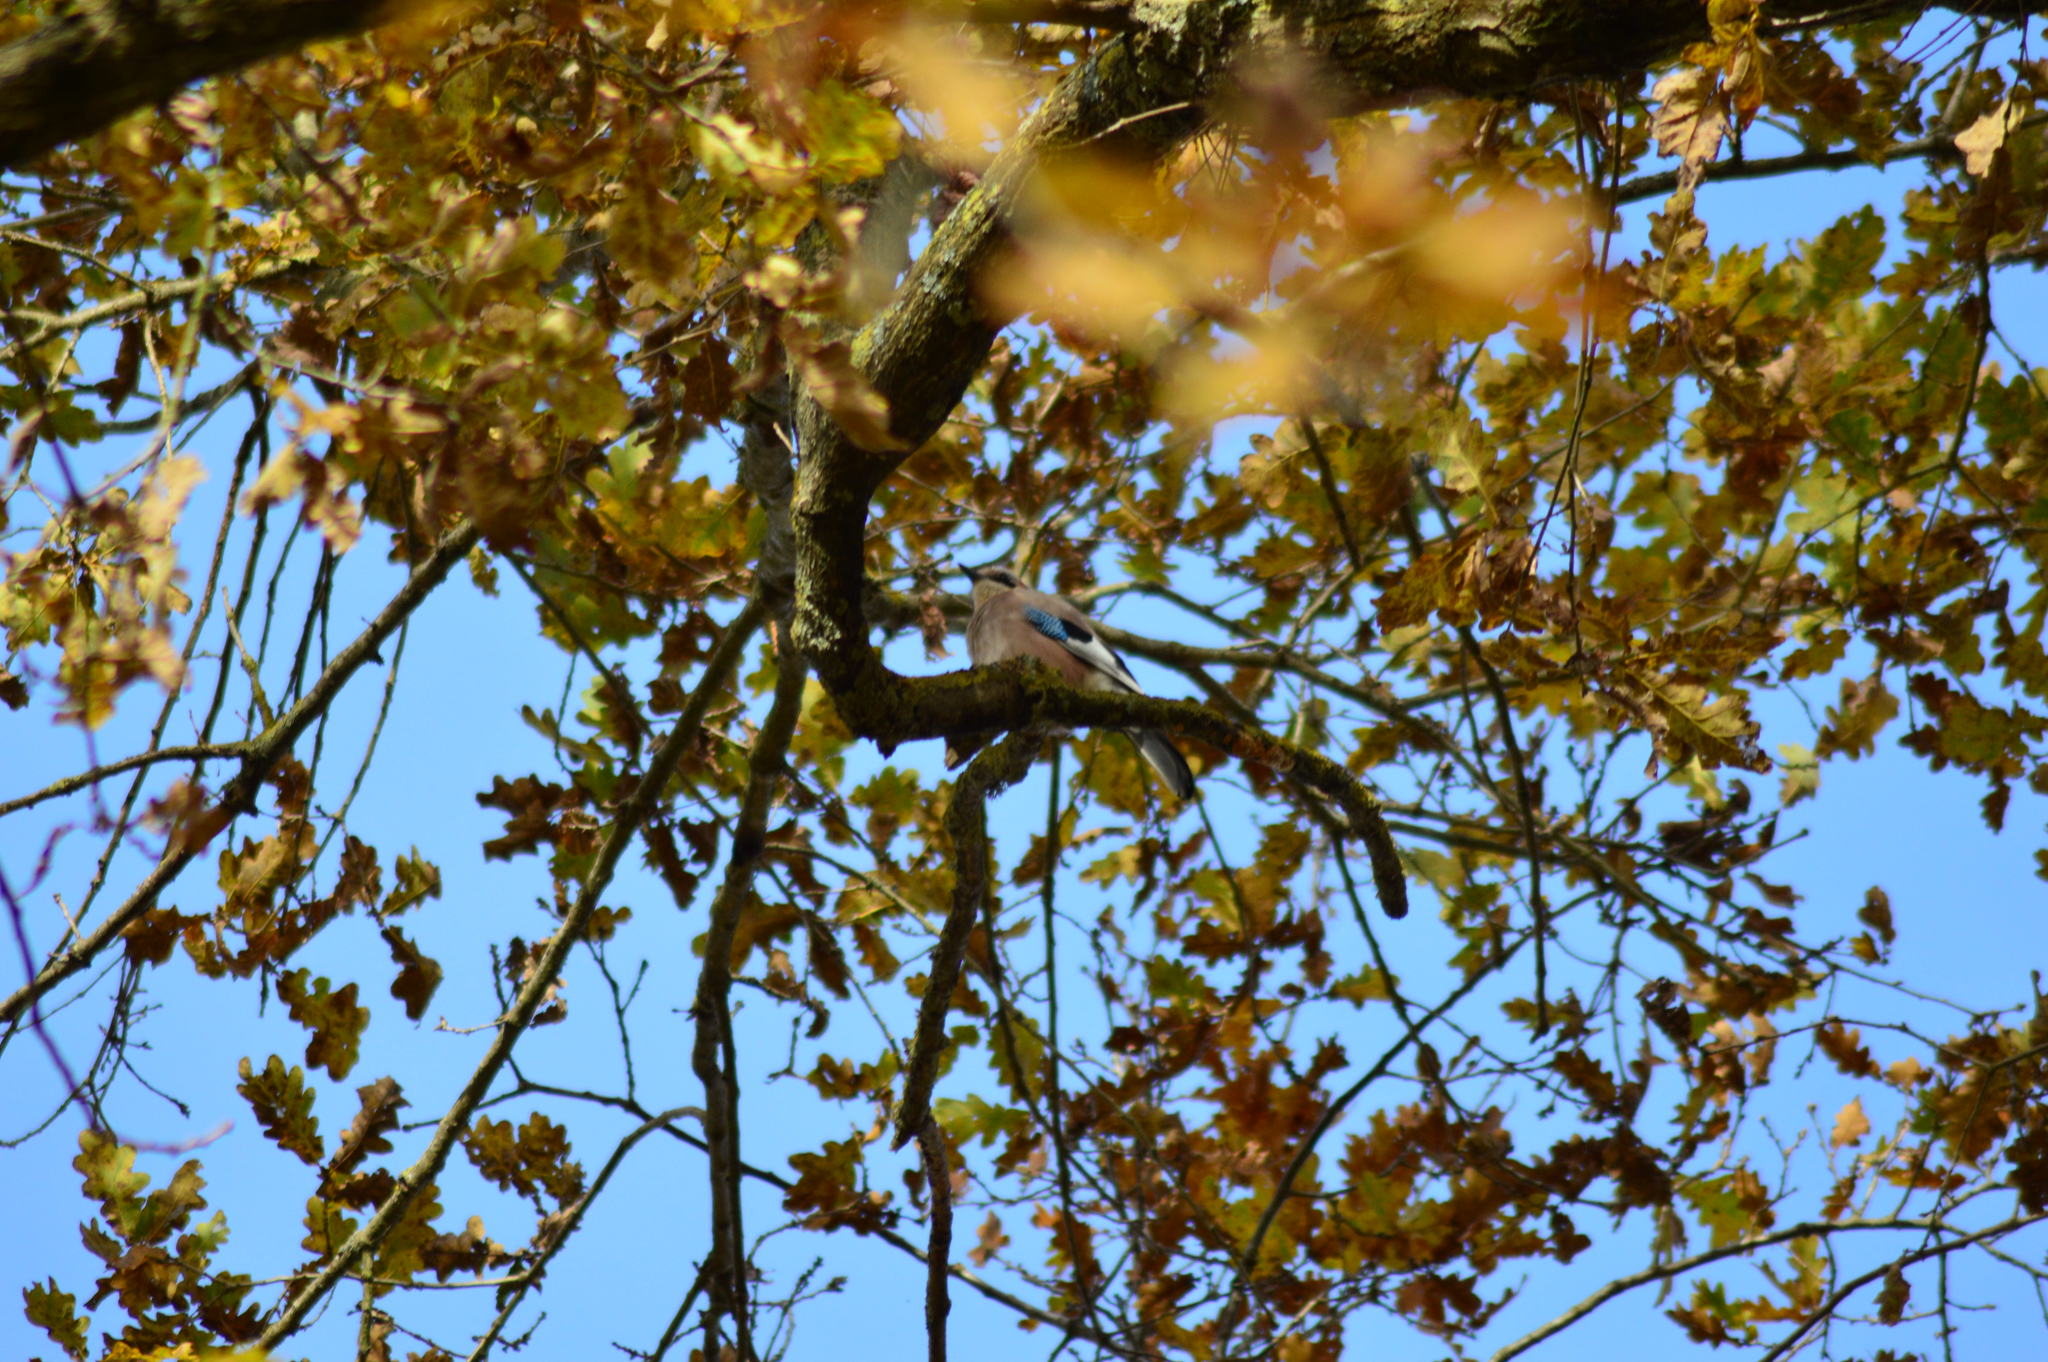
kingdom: Animalia
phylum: Chordata
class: Aves
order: Passeriformes
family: Corvidae
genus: Garrulus
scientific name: Garrulus glandarius
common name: Eurasian jay
